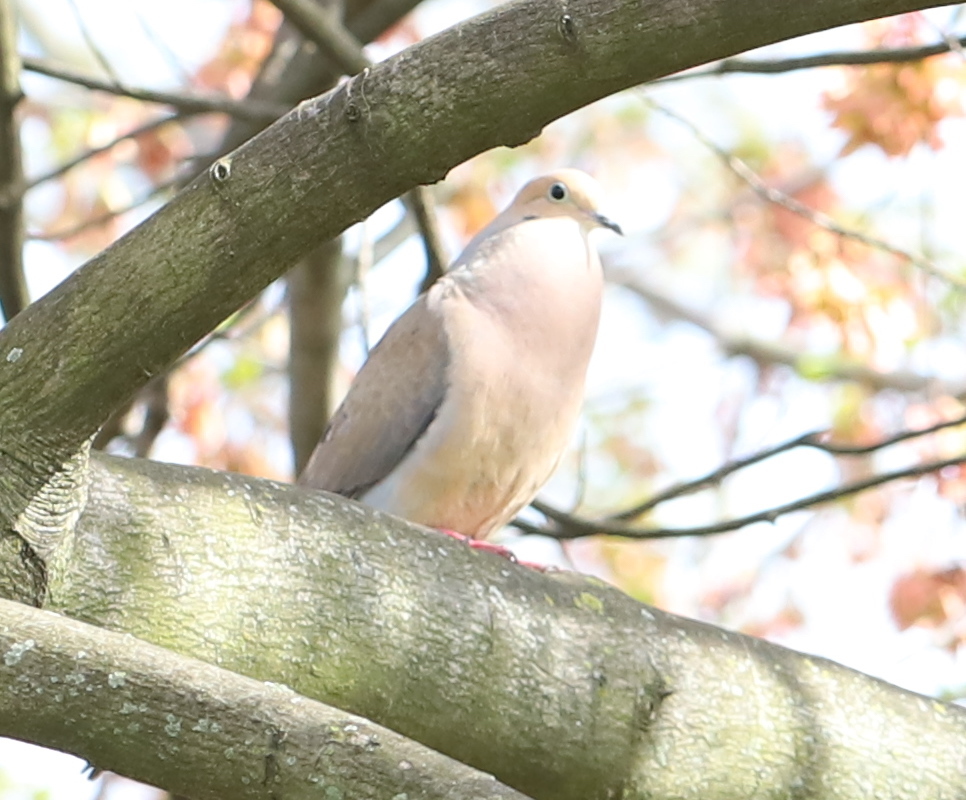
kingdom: Animalia
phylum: Chordata
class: Aves
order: Columbiformes
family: Columbidae
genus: Zenaida
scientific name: Zenaida macroura
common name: Mourning dove
